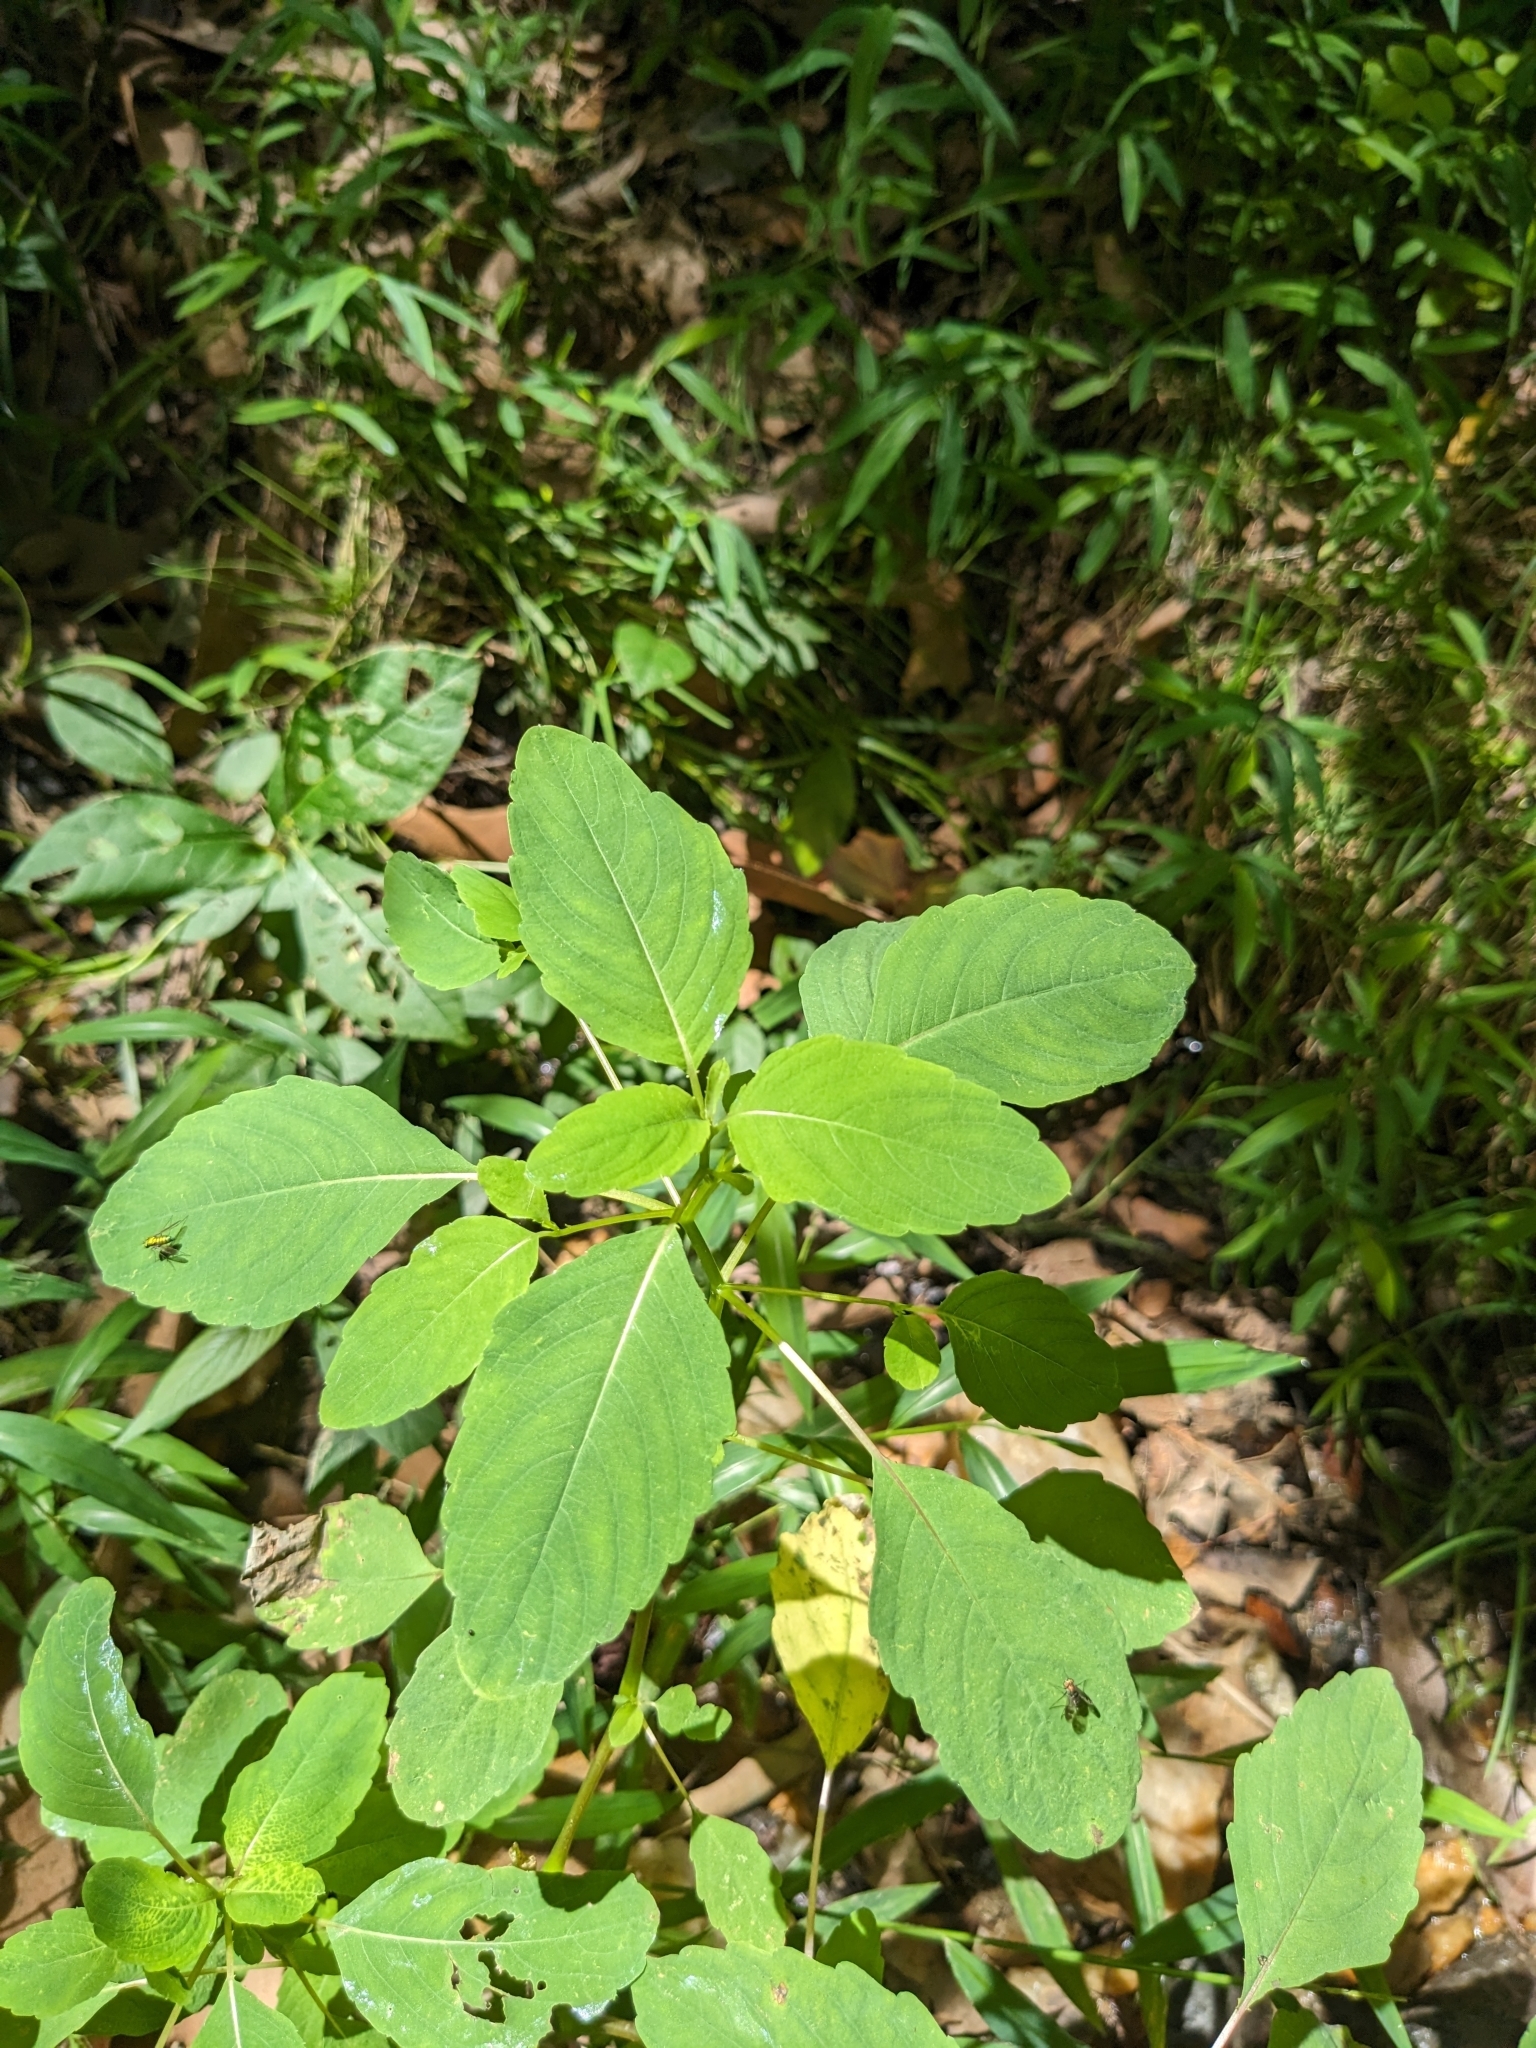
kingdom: Plantae
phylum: Tracheophyta
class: Magnoliopsida
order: Ericales
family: Balsaminaceae
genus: Impatiens
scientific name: Impatiens capensis
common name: Orange balsam
